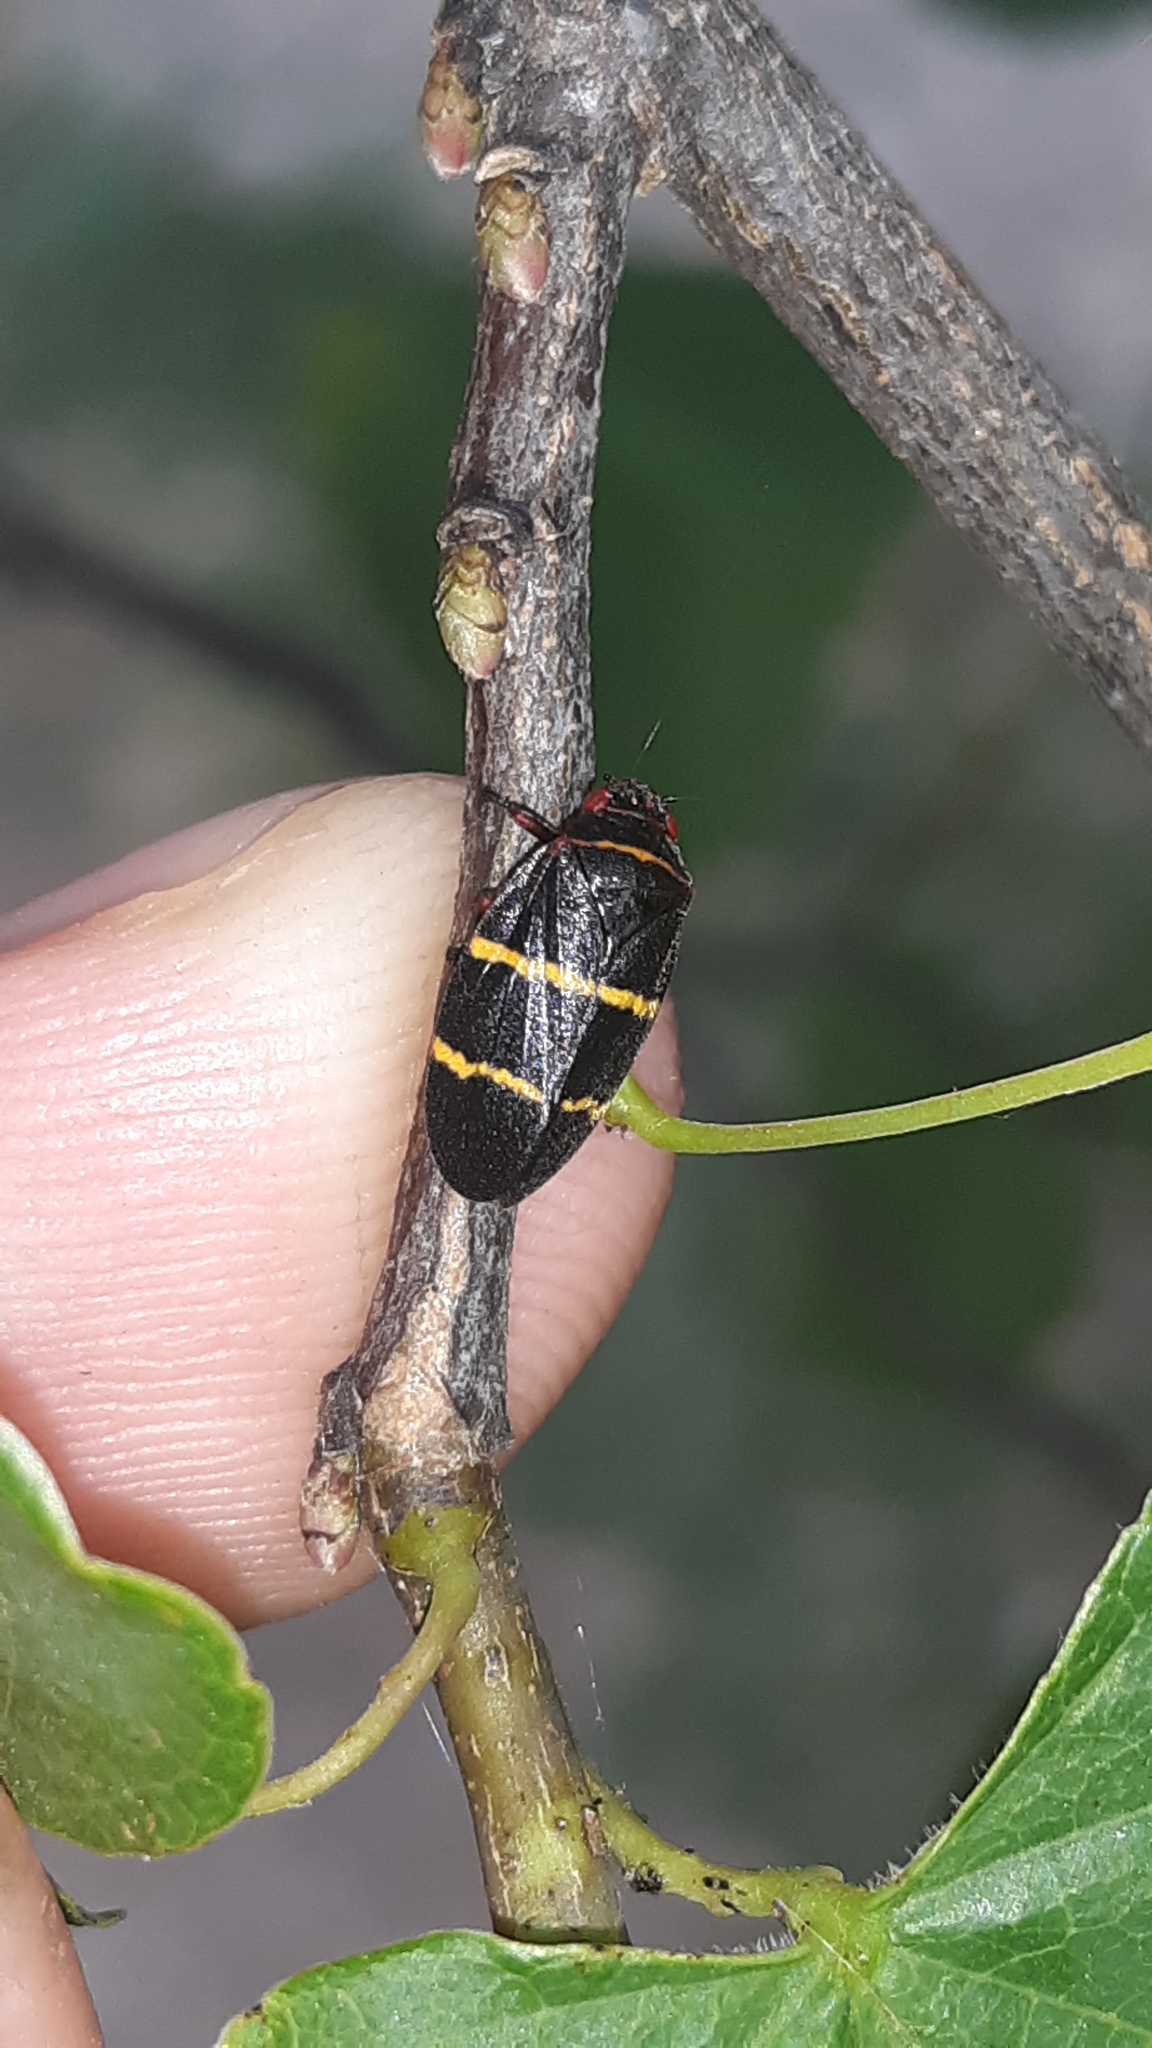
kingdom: Animalia
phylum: Arthropoda
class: Insecta
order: Hemiptera
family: Cercopidae
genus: Prosapia
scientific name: Prosapia bicincta
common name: Twolined spittlebug
